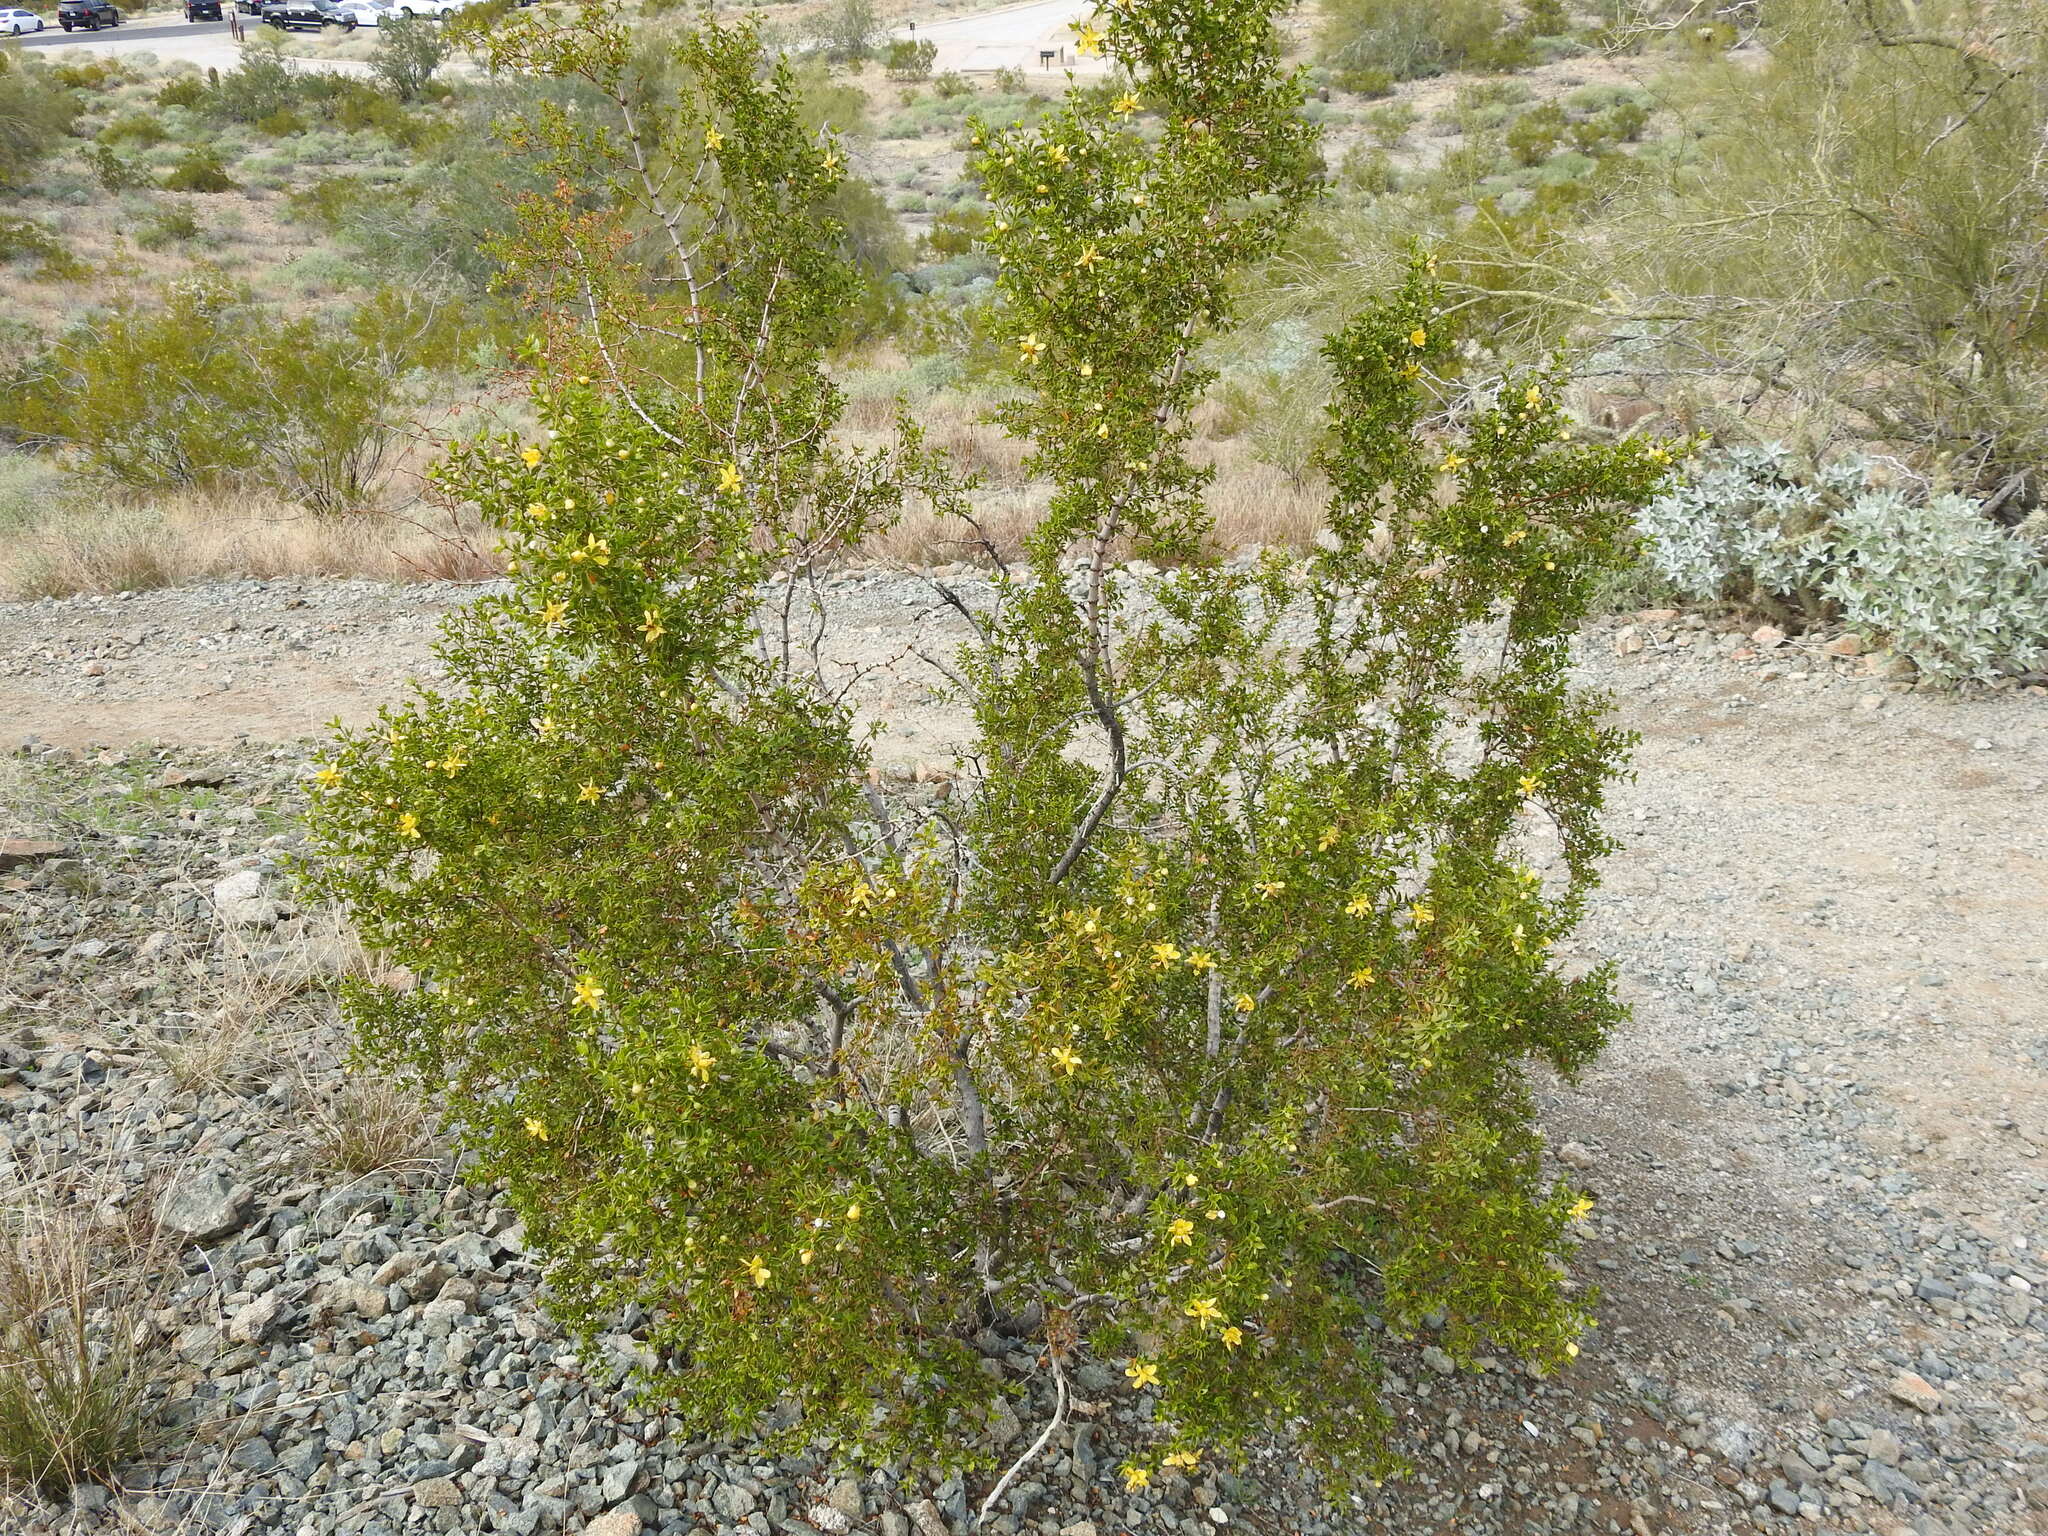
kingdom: Plantae
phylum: Tracheophyta
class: Magnoliopsida
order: Zygophyllales
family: Zygophyllaceae
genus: Larrea
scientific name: Larrea tridentata
